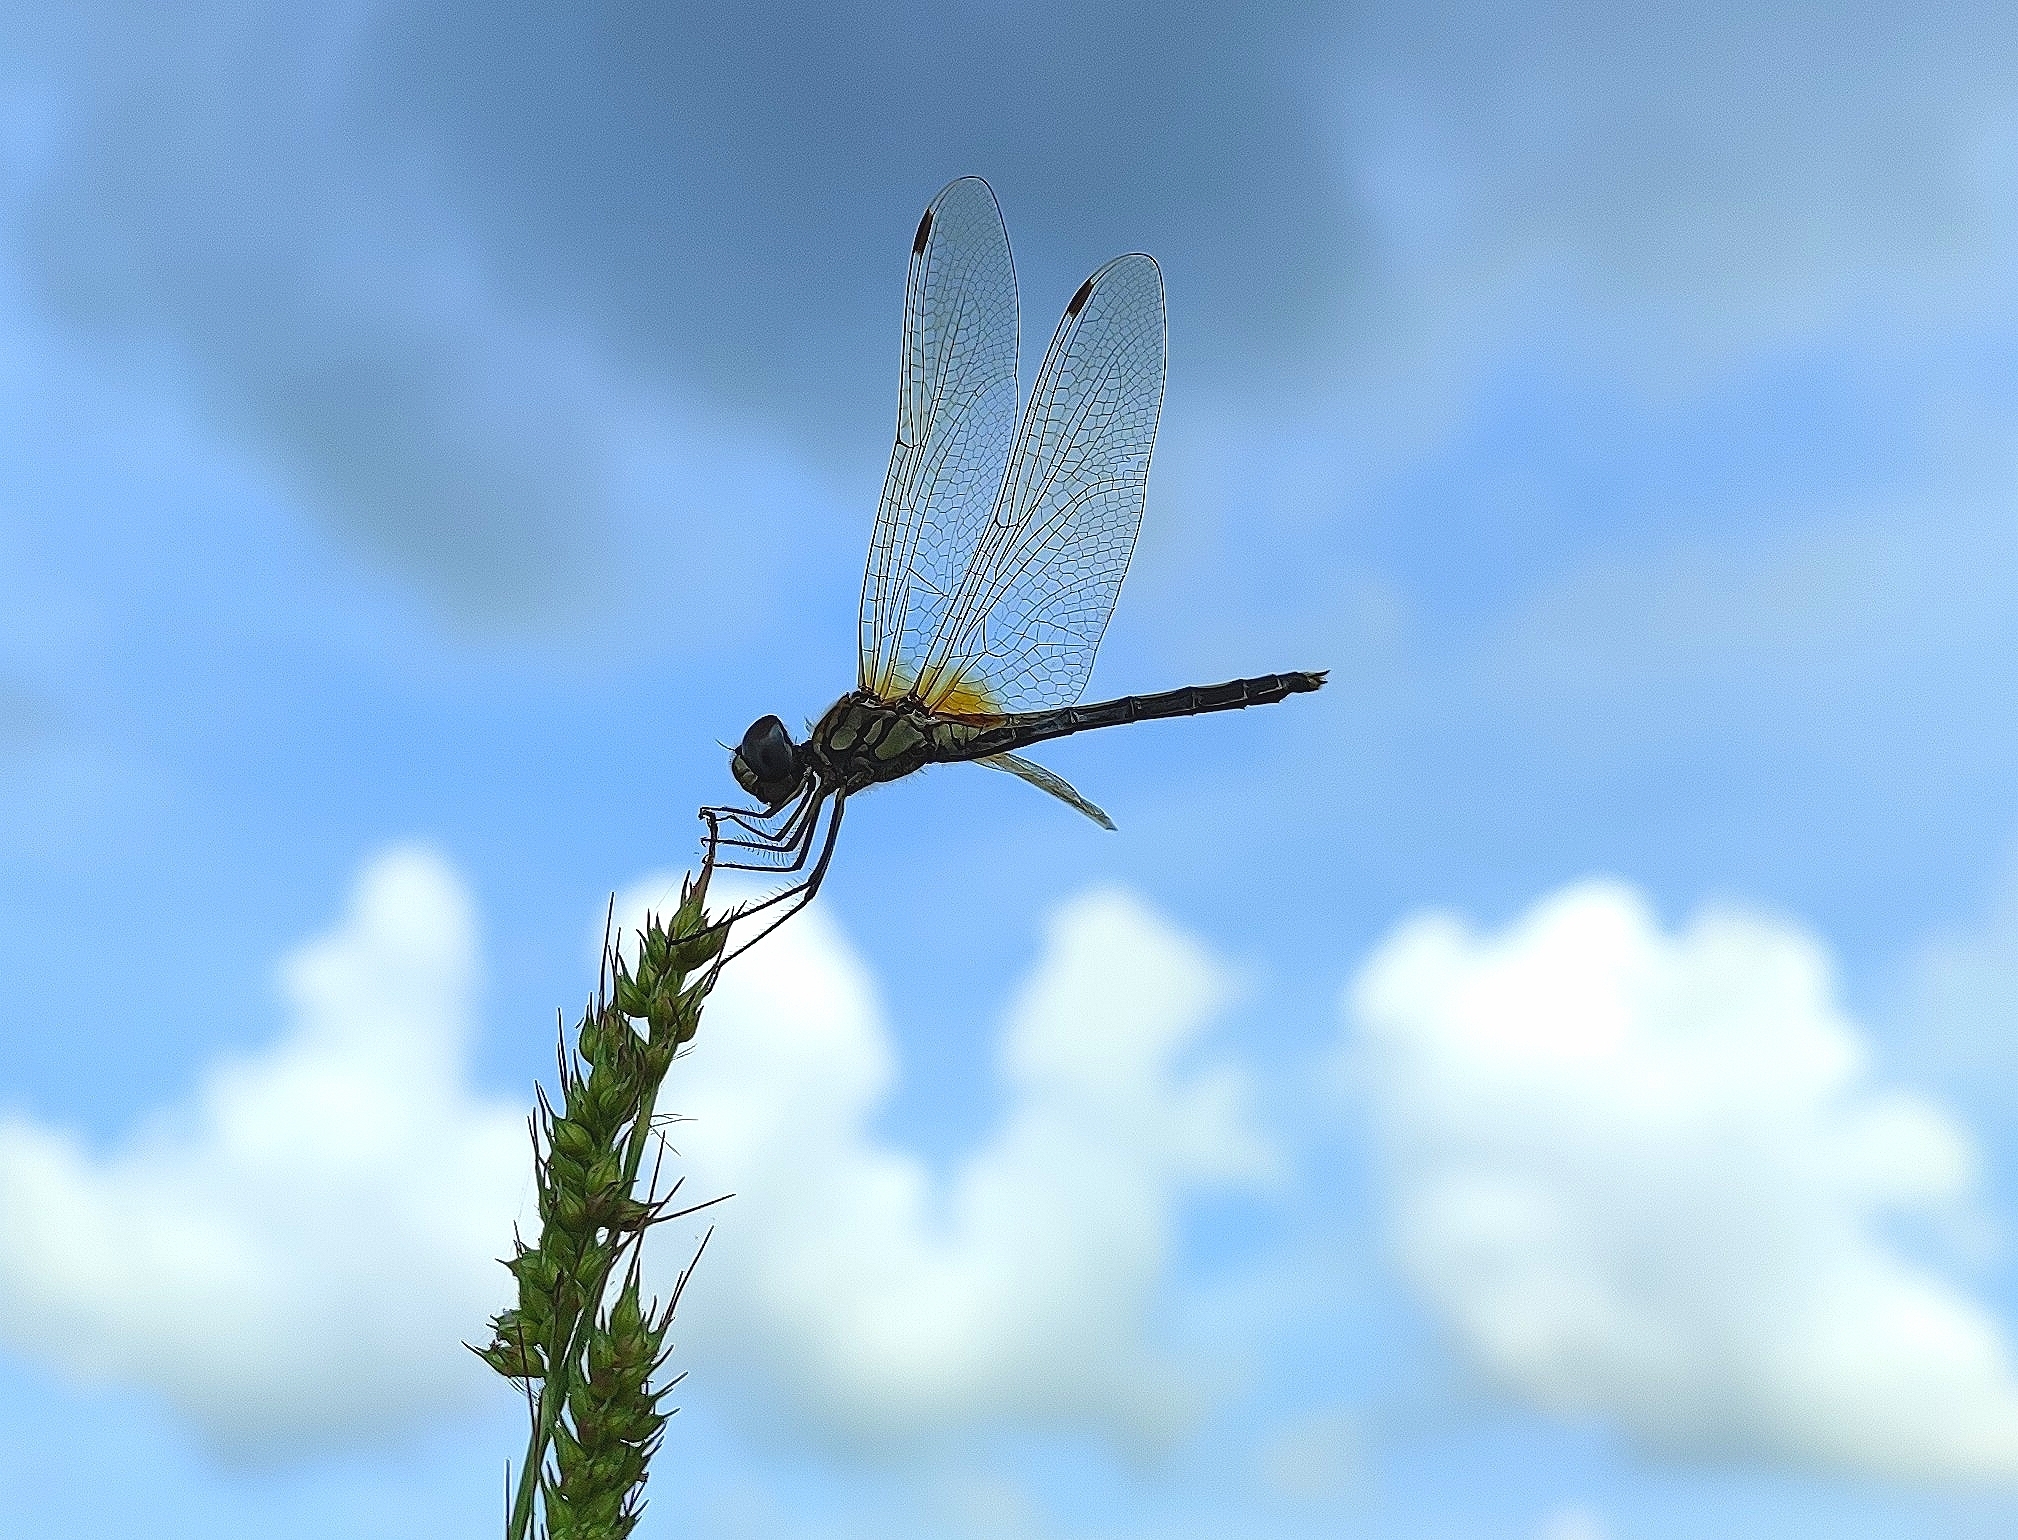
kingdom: Animalia
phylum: Arthropoda
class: Insecta
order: Odonata
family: Libellulidae
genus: Trithemis
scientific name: Trithemis pallidinervis
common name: Dancing dropwing
